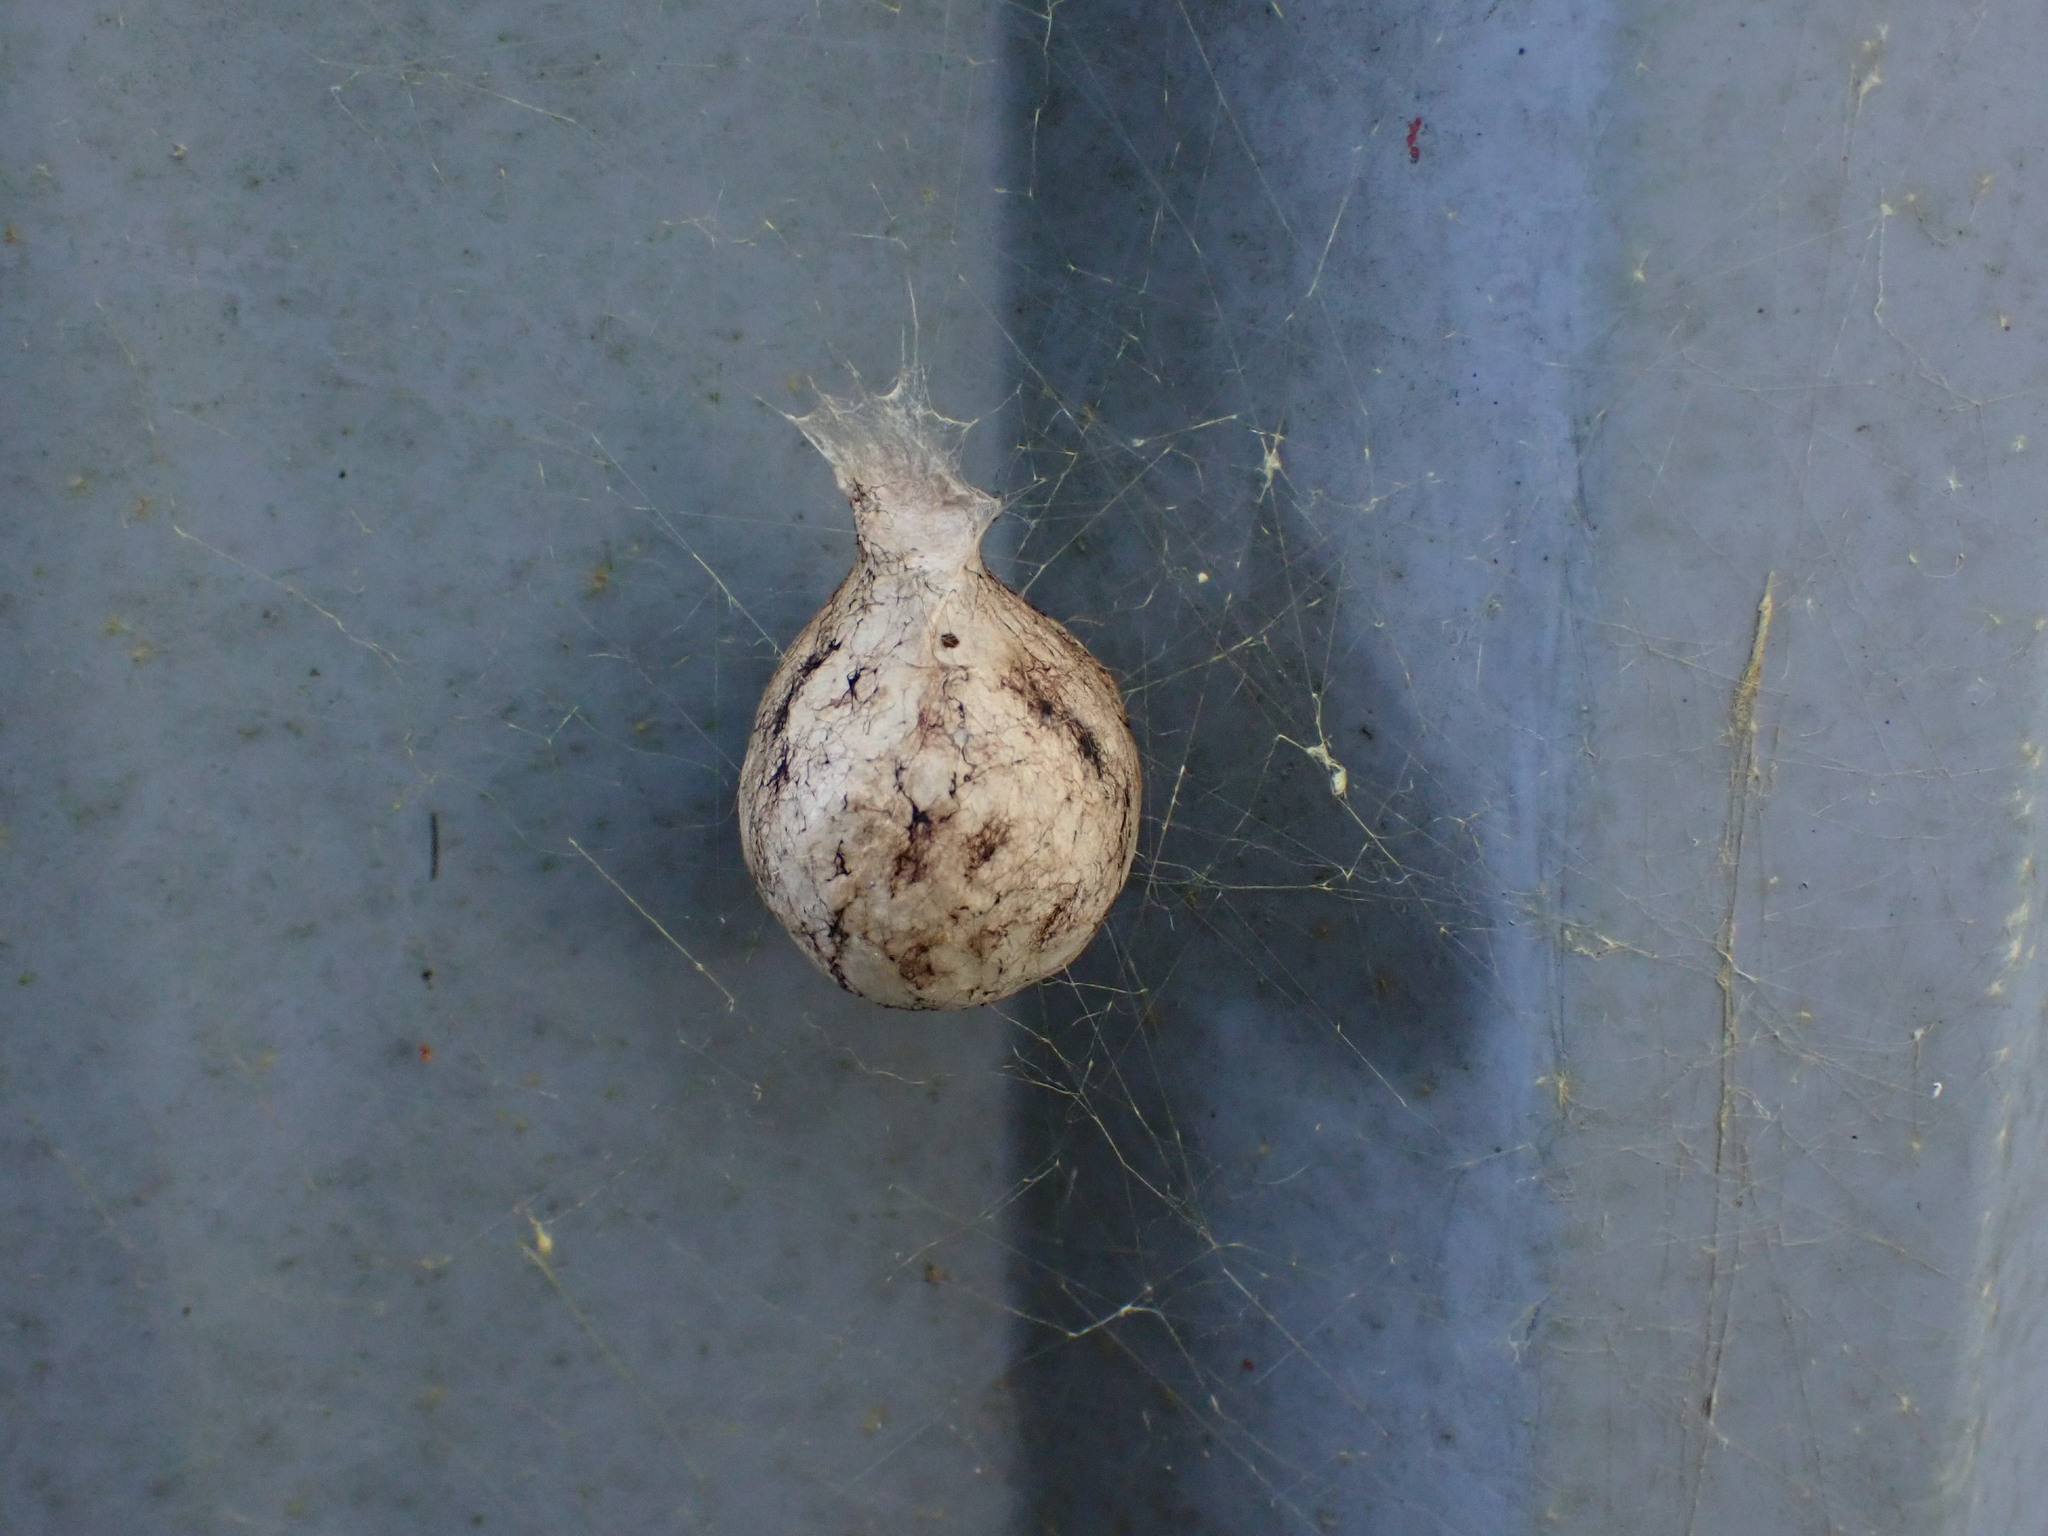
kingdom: Animalia
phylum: Arthropoda
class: Arachnida
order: Araneae
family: Araneidae
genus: Argiope
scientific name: Argiope aurantia
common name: Orb weavers
